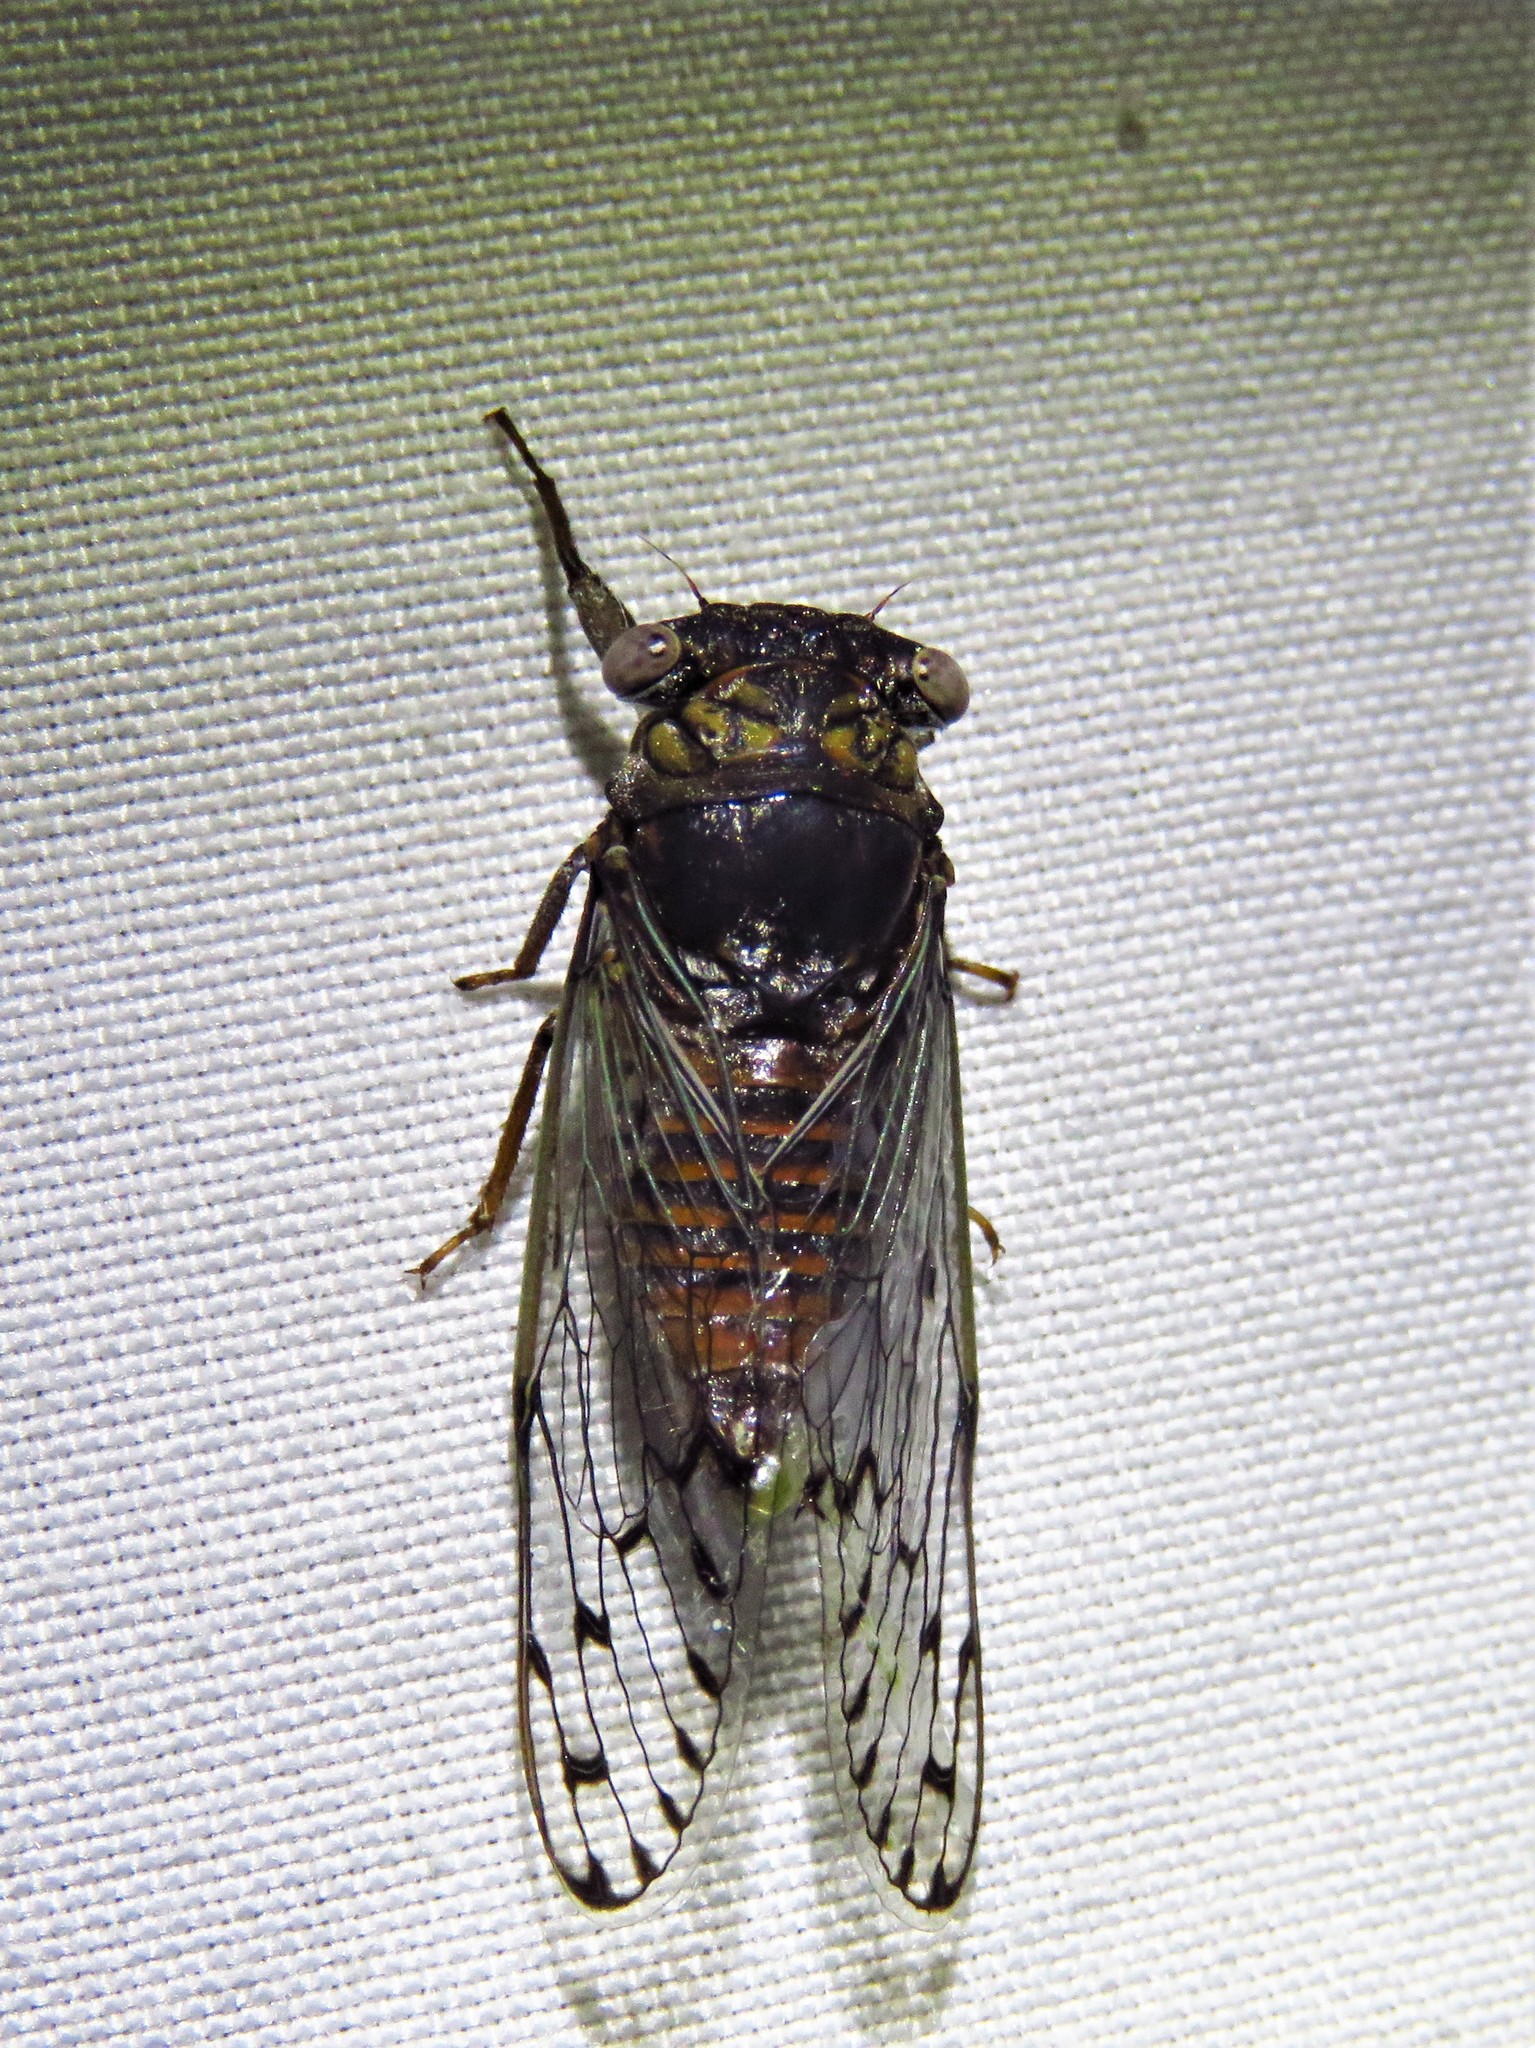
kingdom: Animalia
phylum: Arthropoda
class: Insecta
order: Hemiptera
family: Cicadidae
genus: Pacarina
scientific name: Pacarina puella
